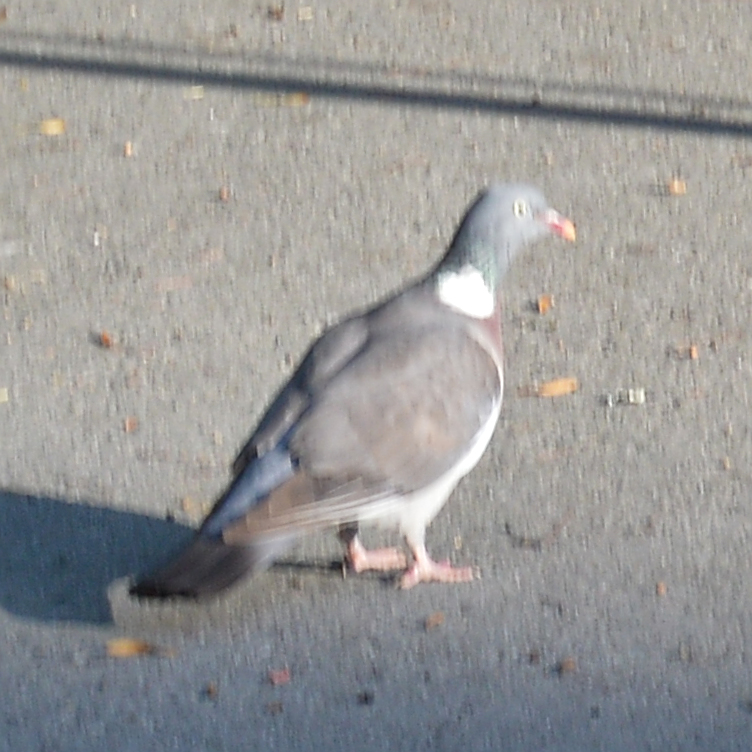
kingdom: Animalia
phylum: Chordata
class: Aves
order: Columbiformes
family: Columbidae
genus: Columba
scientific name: Columba palumbus
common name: Common wood pigeon
